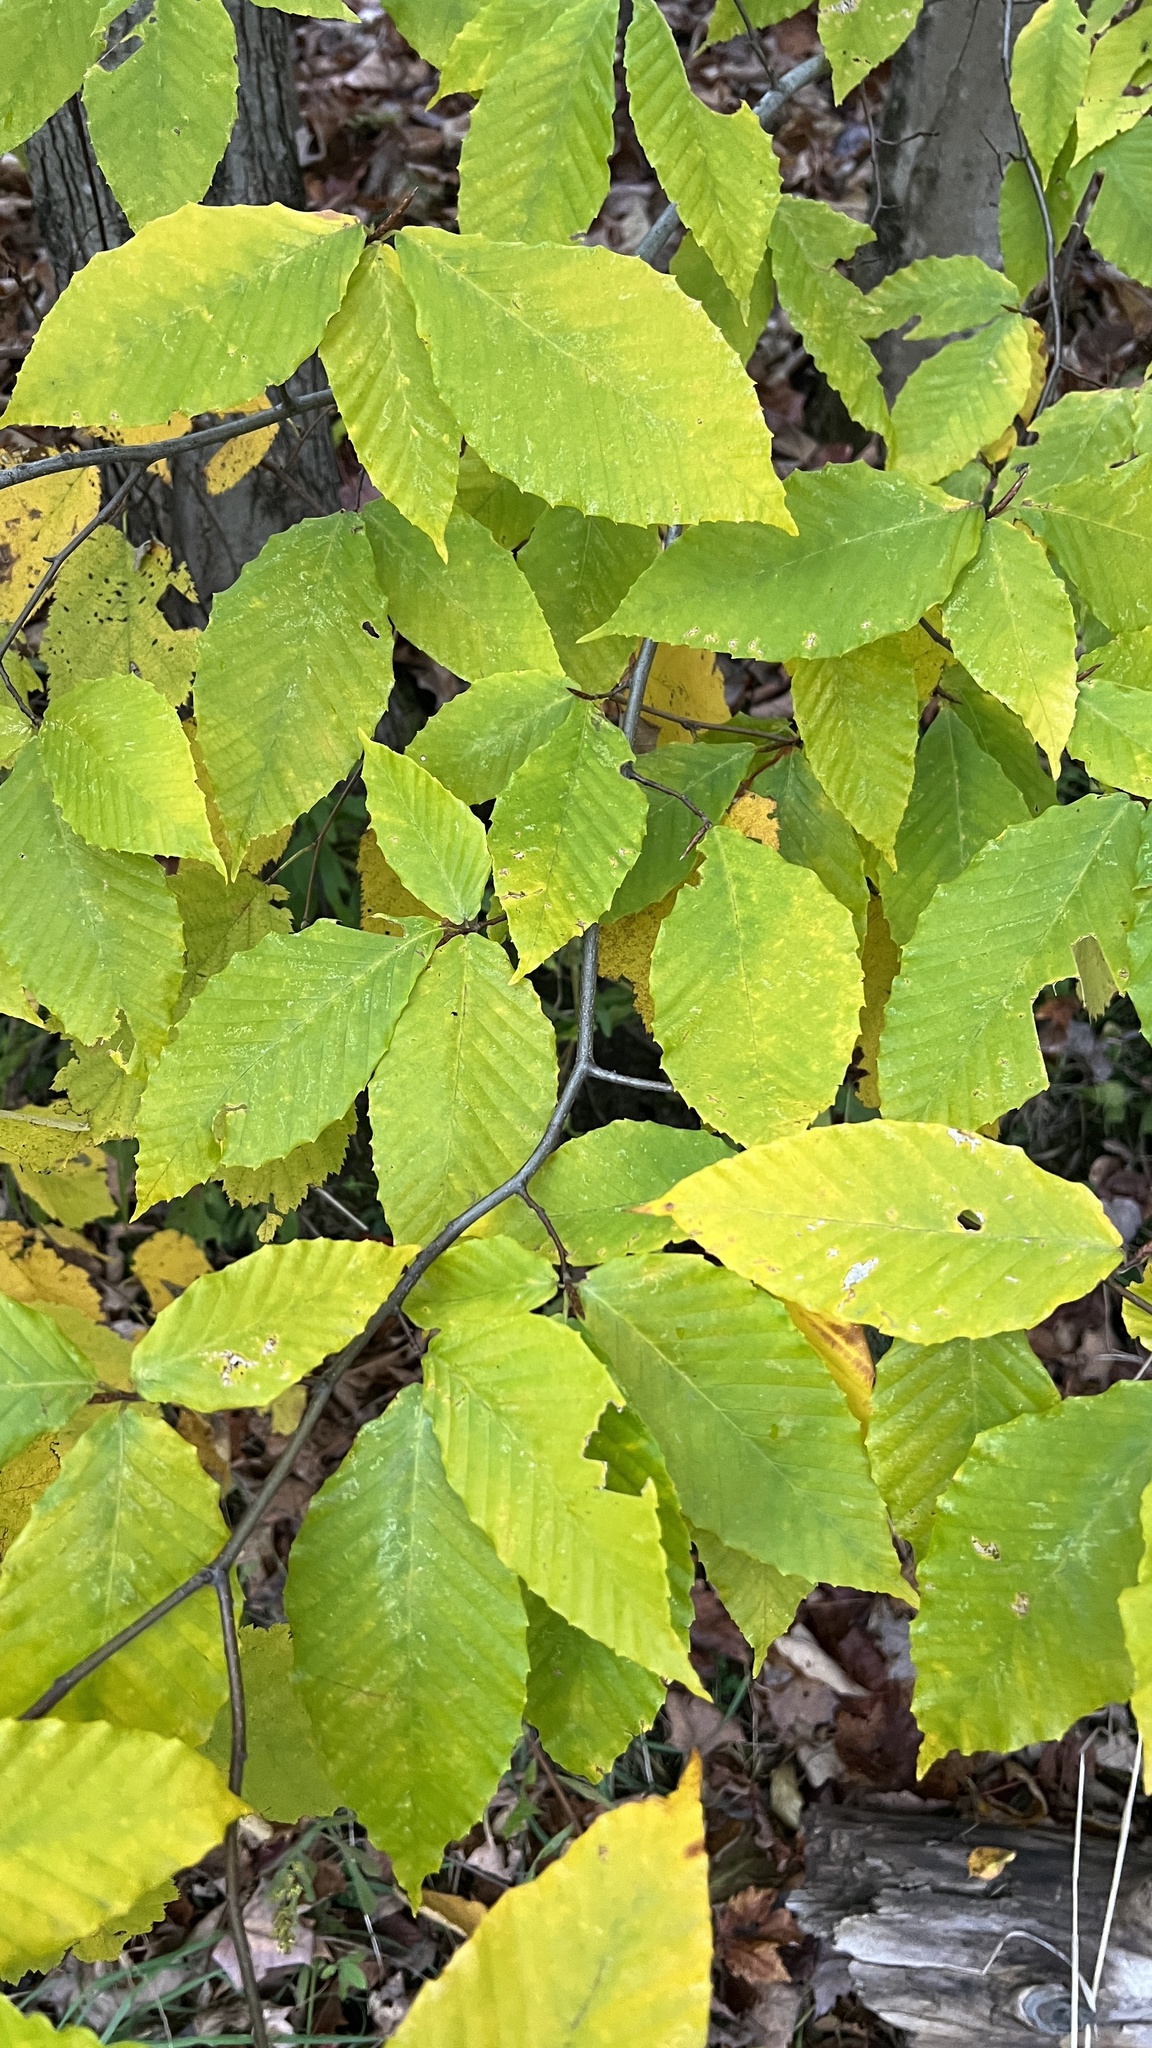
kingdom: Plantae
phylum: Tracheophyta
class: Magnoliopsida
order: Fagales
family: Fagaceae
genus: Fagus
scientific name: Fagus grandifolia
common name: American beech
